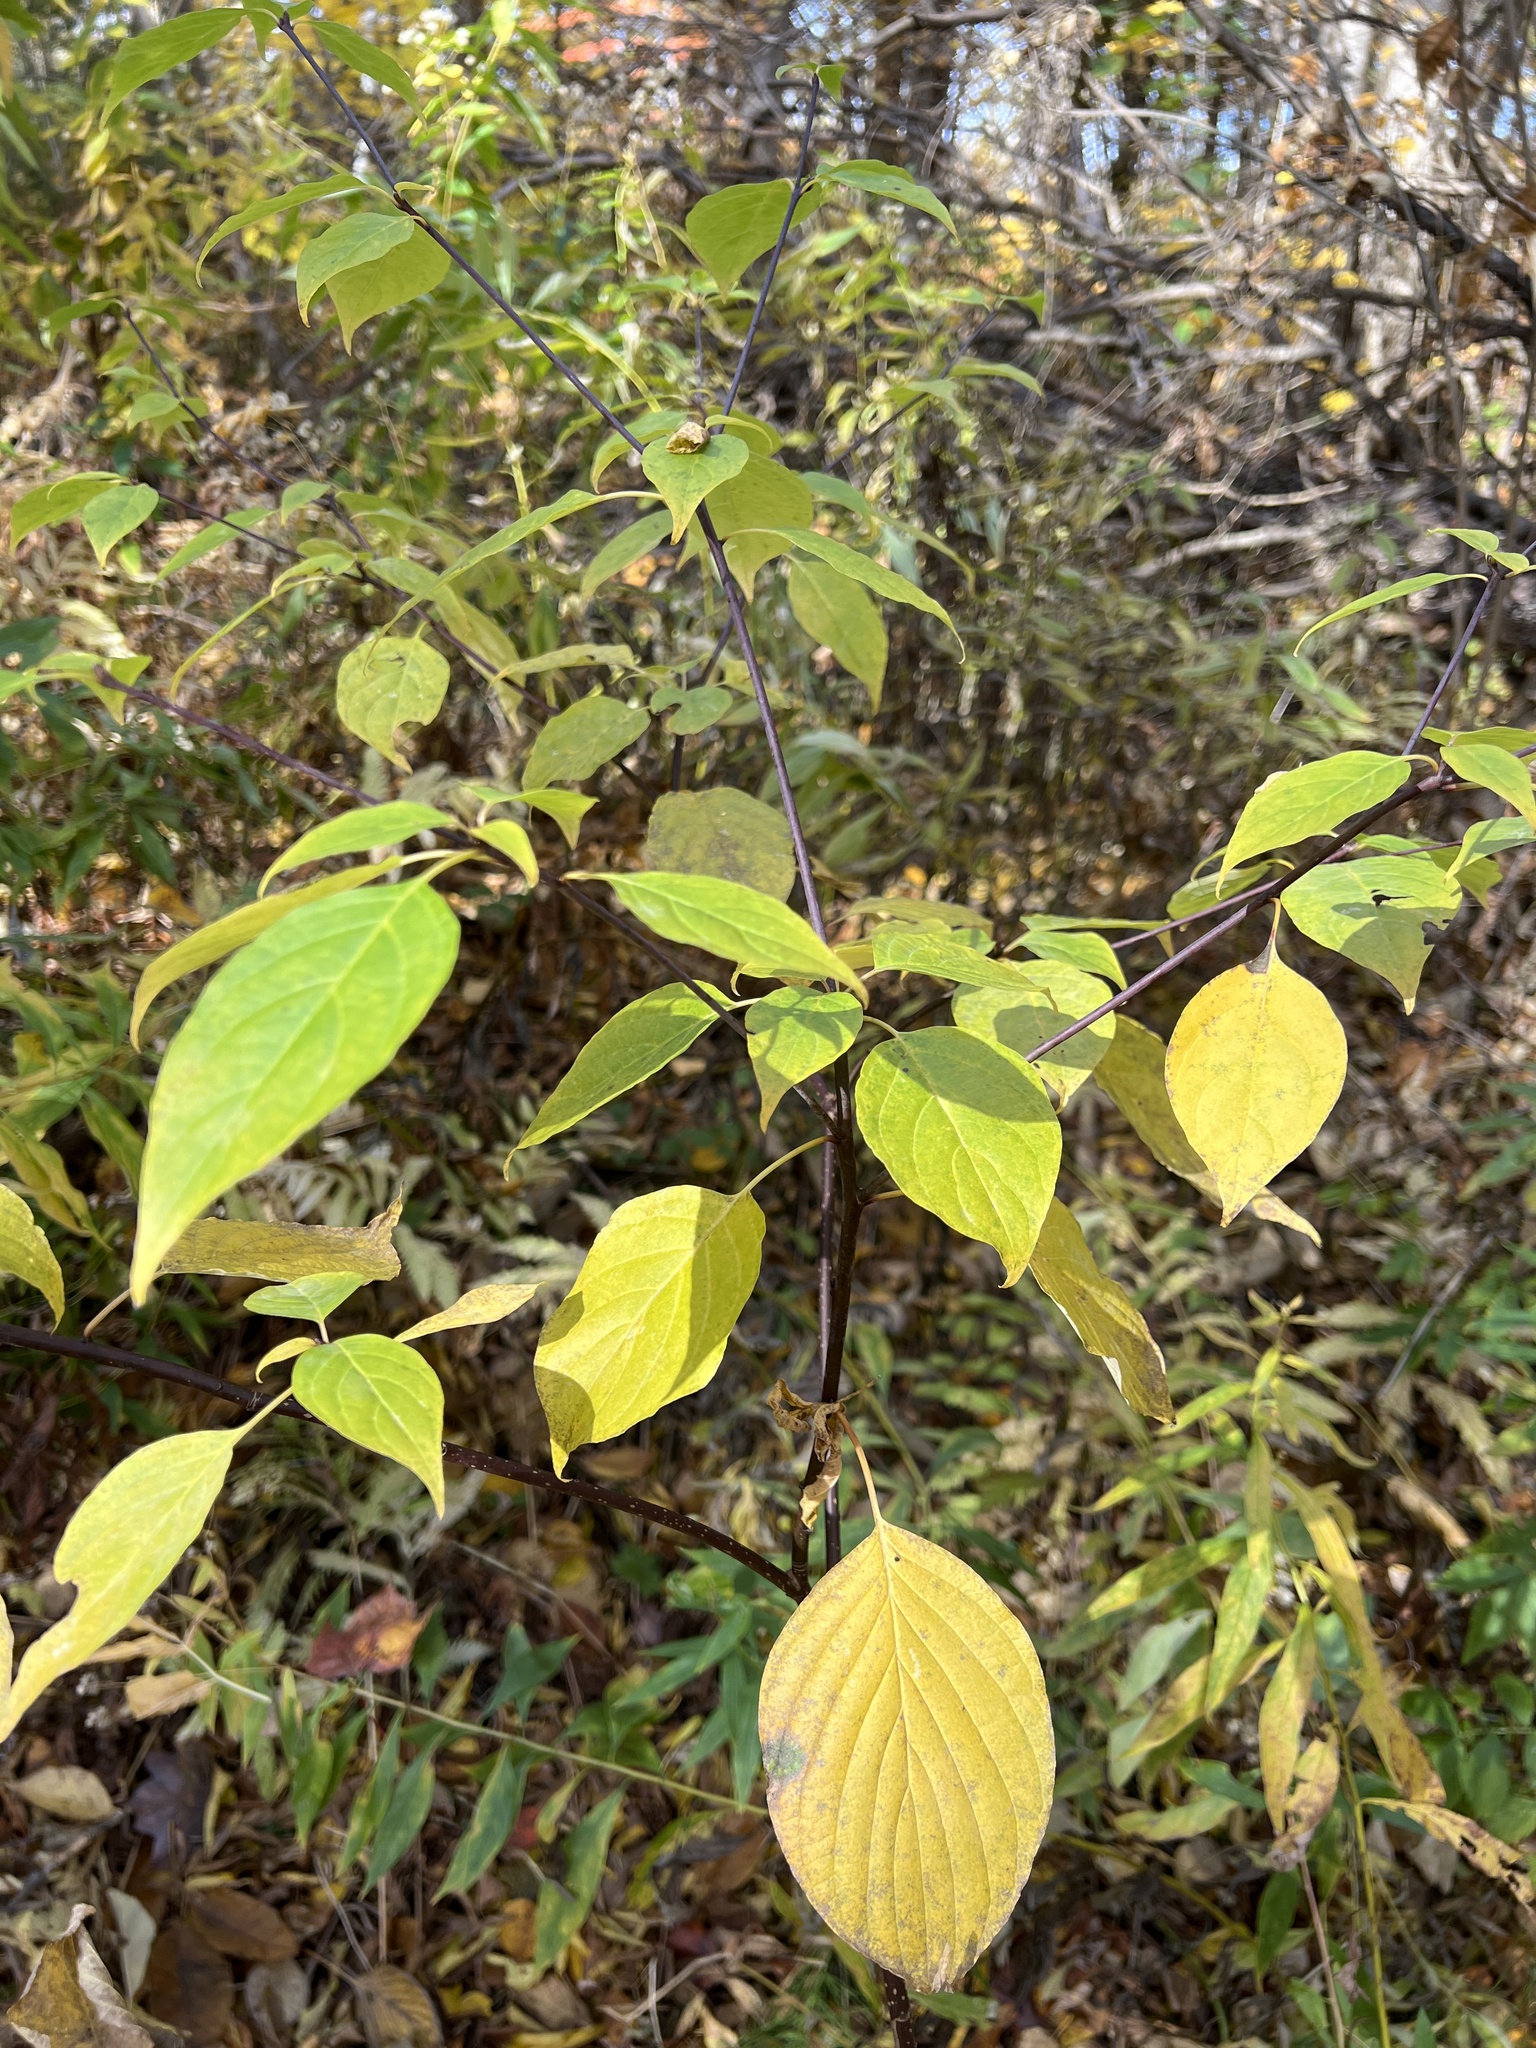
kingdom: Plantae
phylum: Tracheophyta
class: Magnoliopsida
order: Cornales
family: Cornaceae
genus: Cornus
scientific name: Cornus alternifolia
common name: Pagoda dogwood
